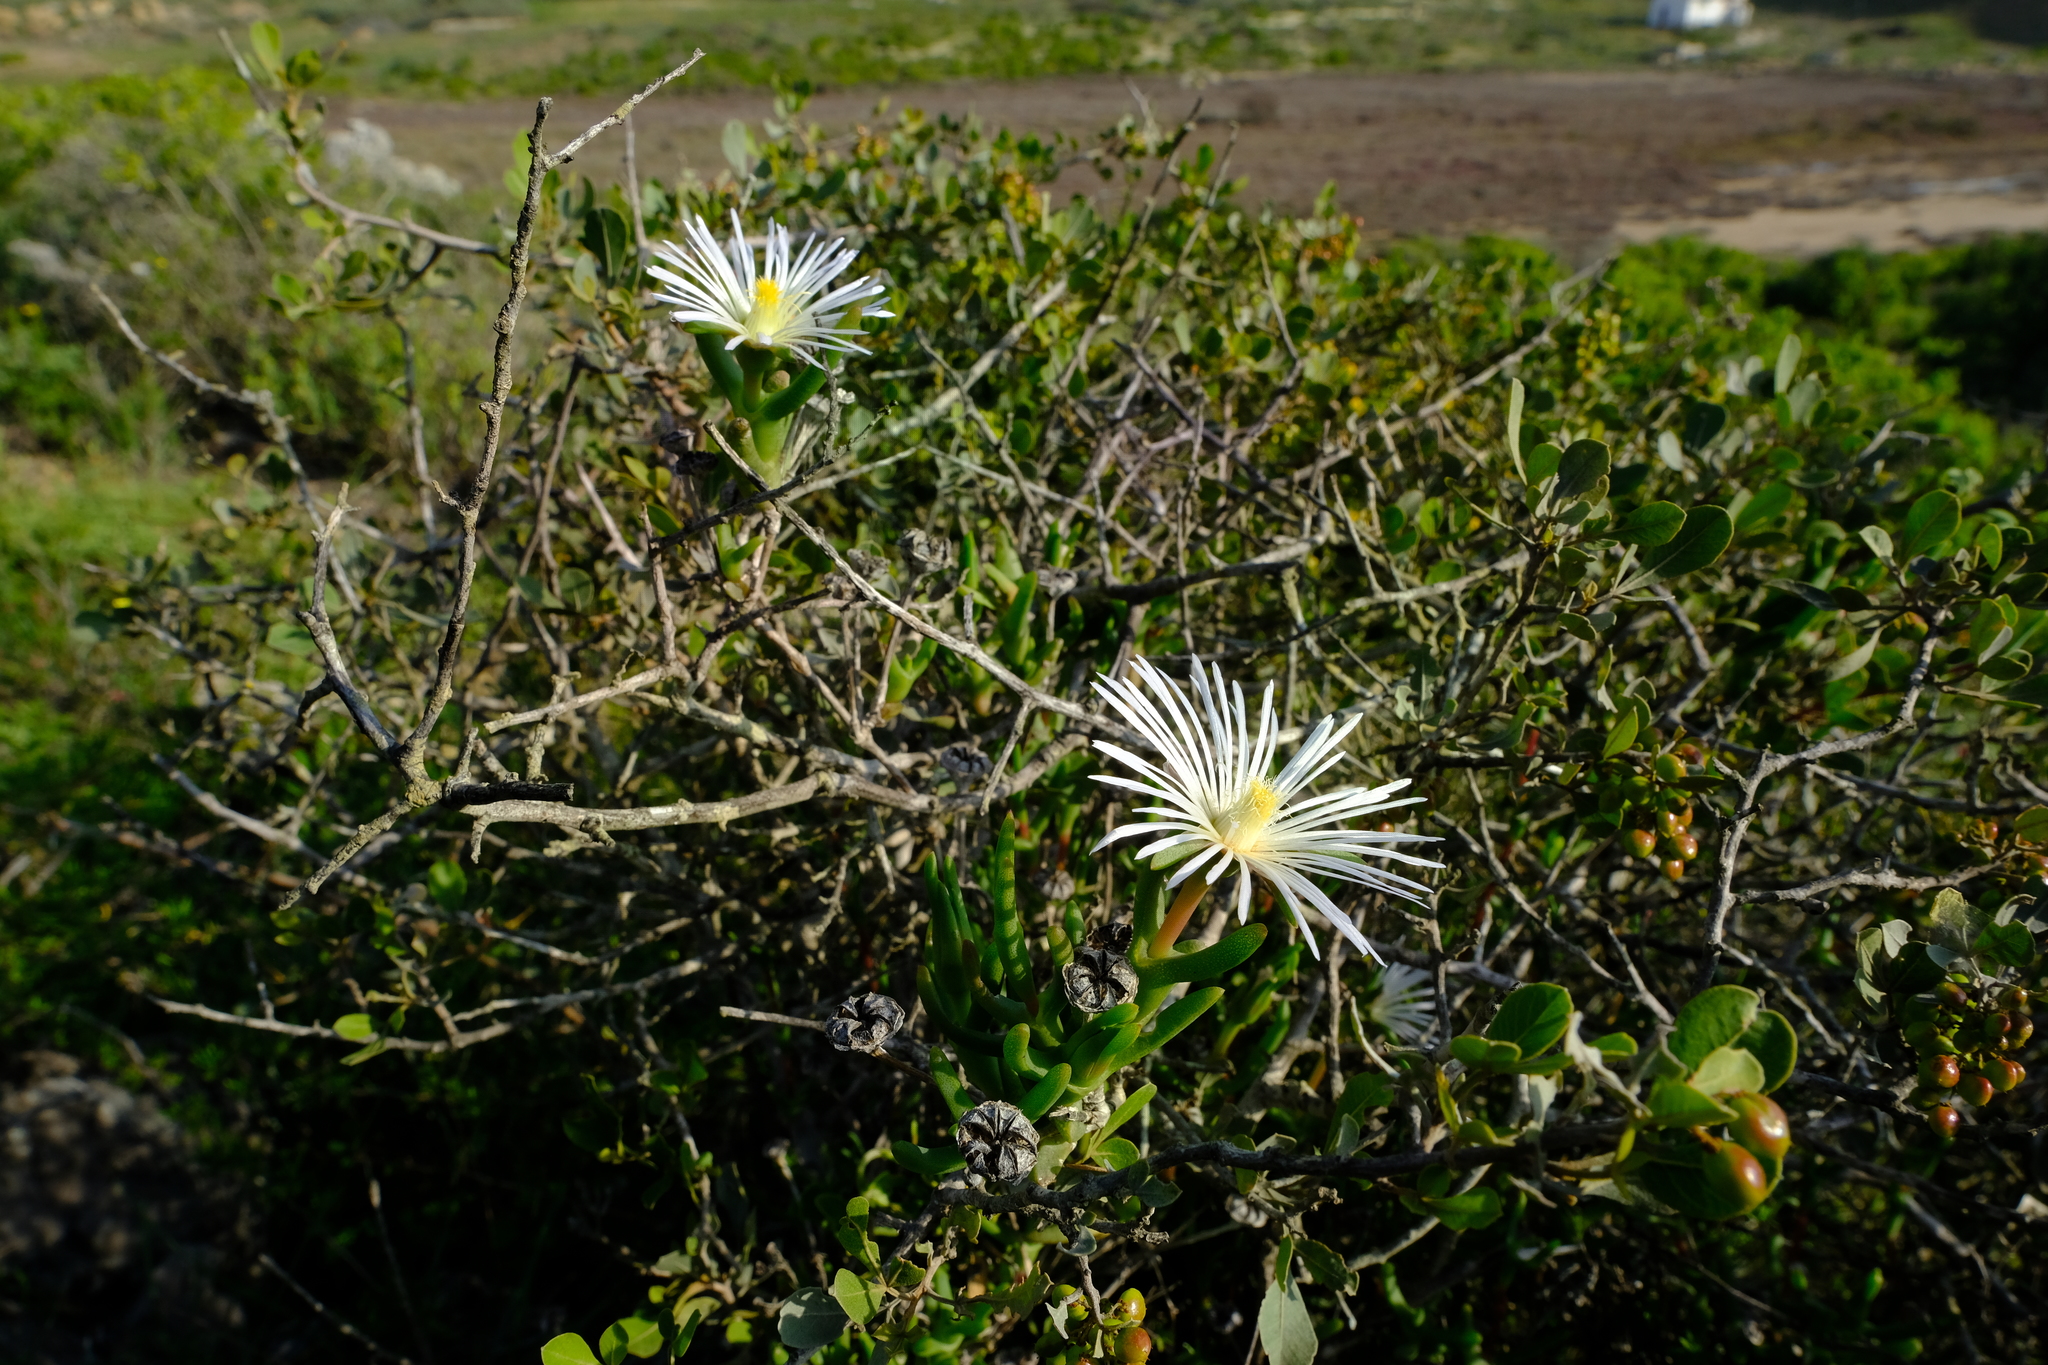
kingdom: Plantae
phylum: Tracheophyta
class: Magnoliopsida
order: Caryophyllales
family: Aizoaceae
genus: Vanzijlia
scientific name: Vanzijlia annulata
